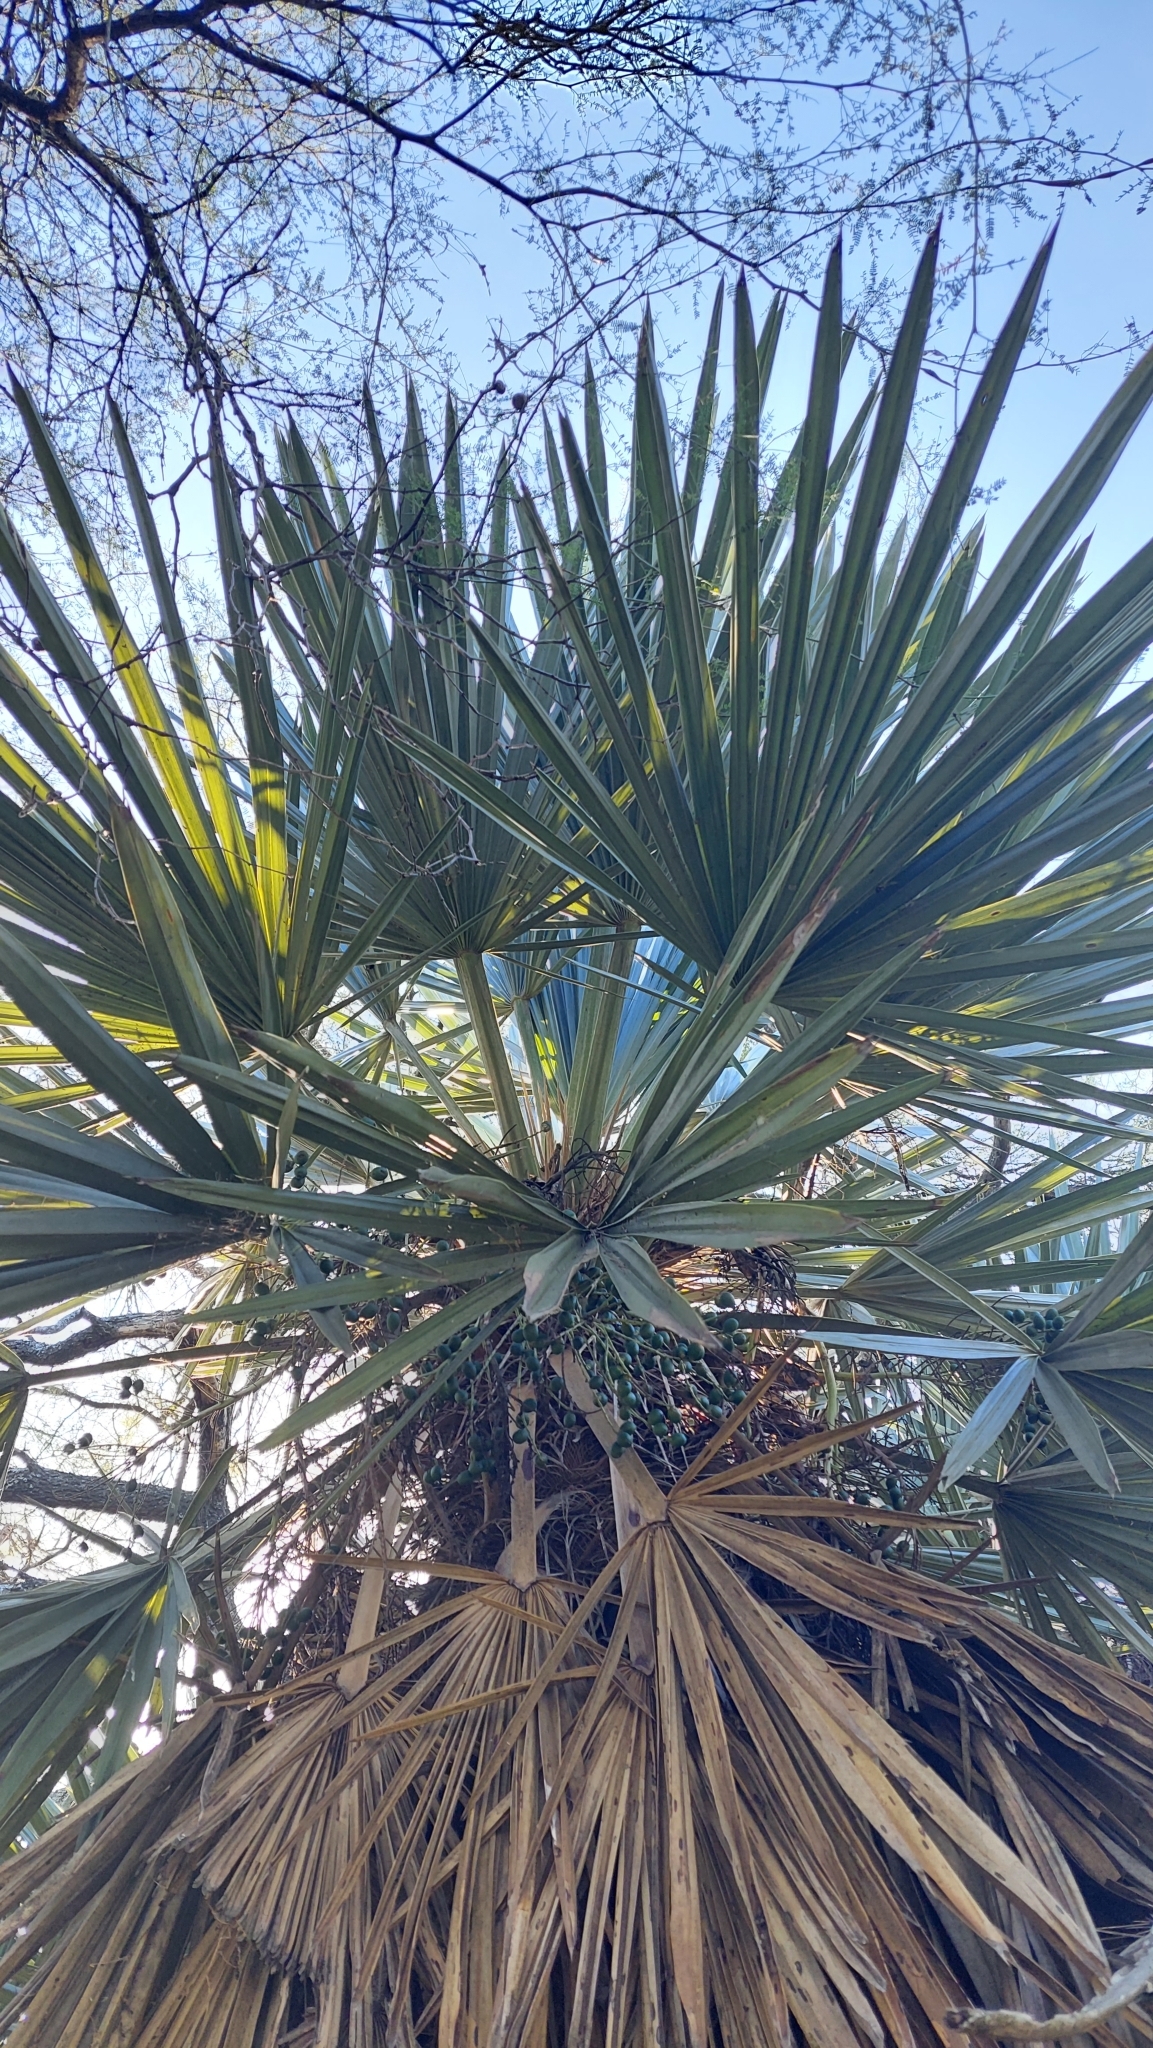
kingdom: Plantae
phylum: Tracheophyta
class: Liliopsida
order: Arecales
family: Arecaceae
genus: Trithrinax
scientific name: Trithrinax campestris
